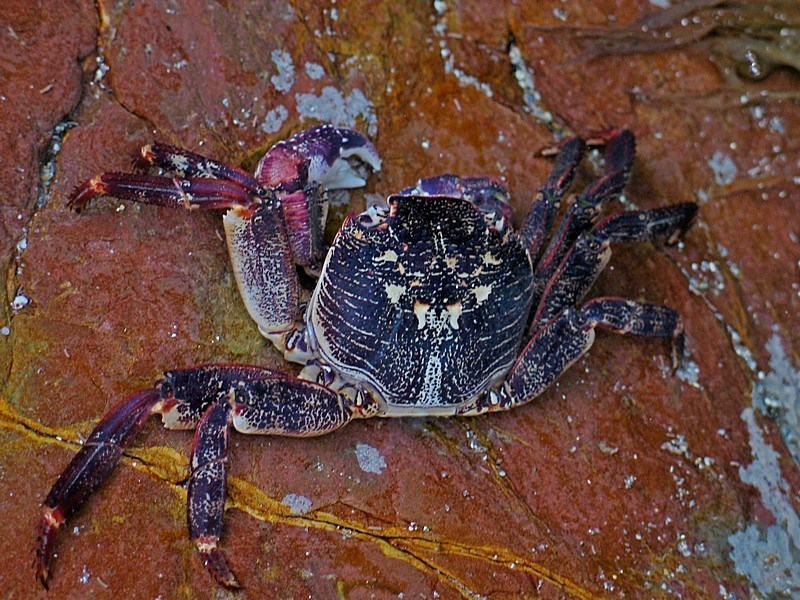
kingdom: Animalia
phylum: Arthropoda
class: Malacostraca
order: Decapoda
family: Grapsidae
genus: Leptograpsus
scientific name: Leptograpsus variegatus
